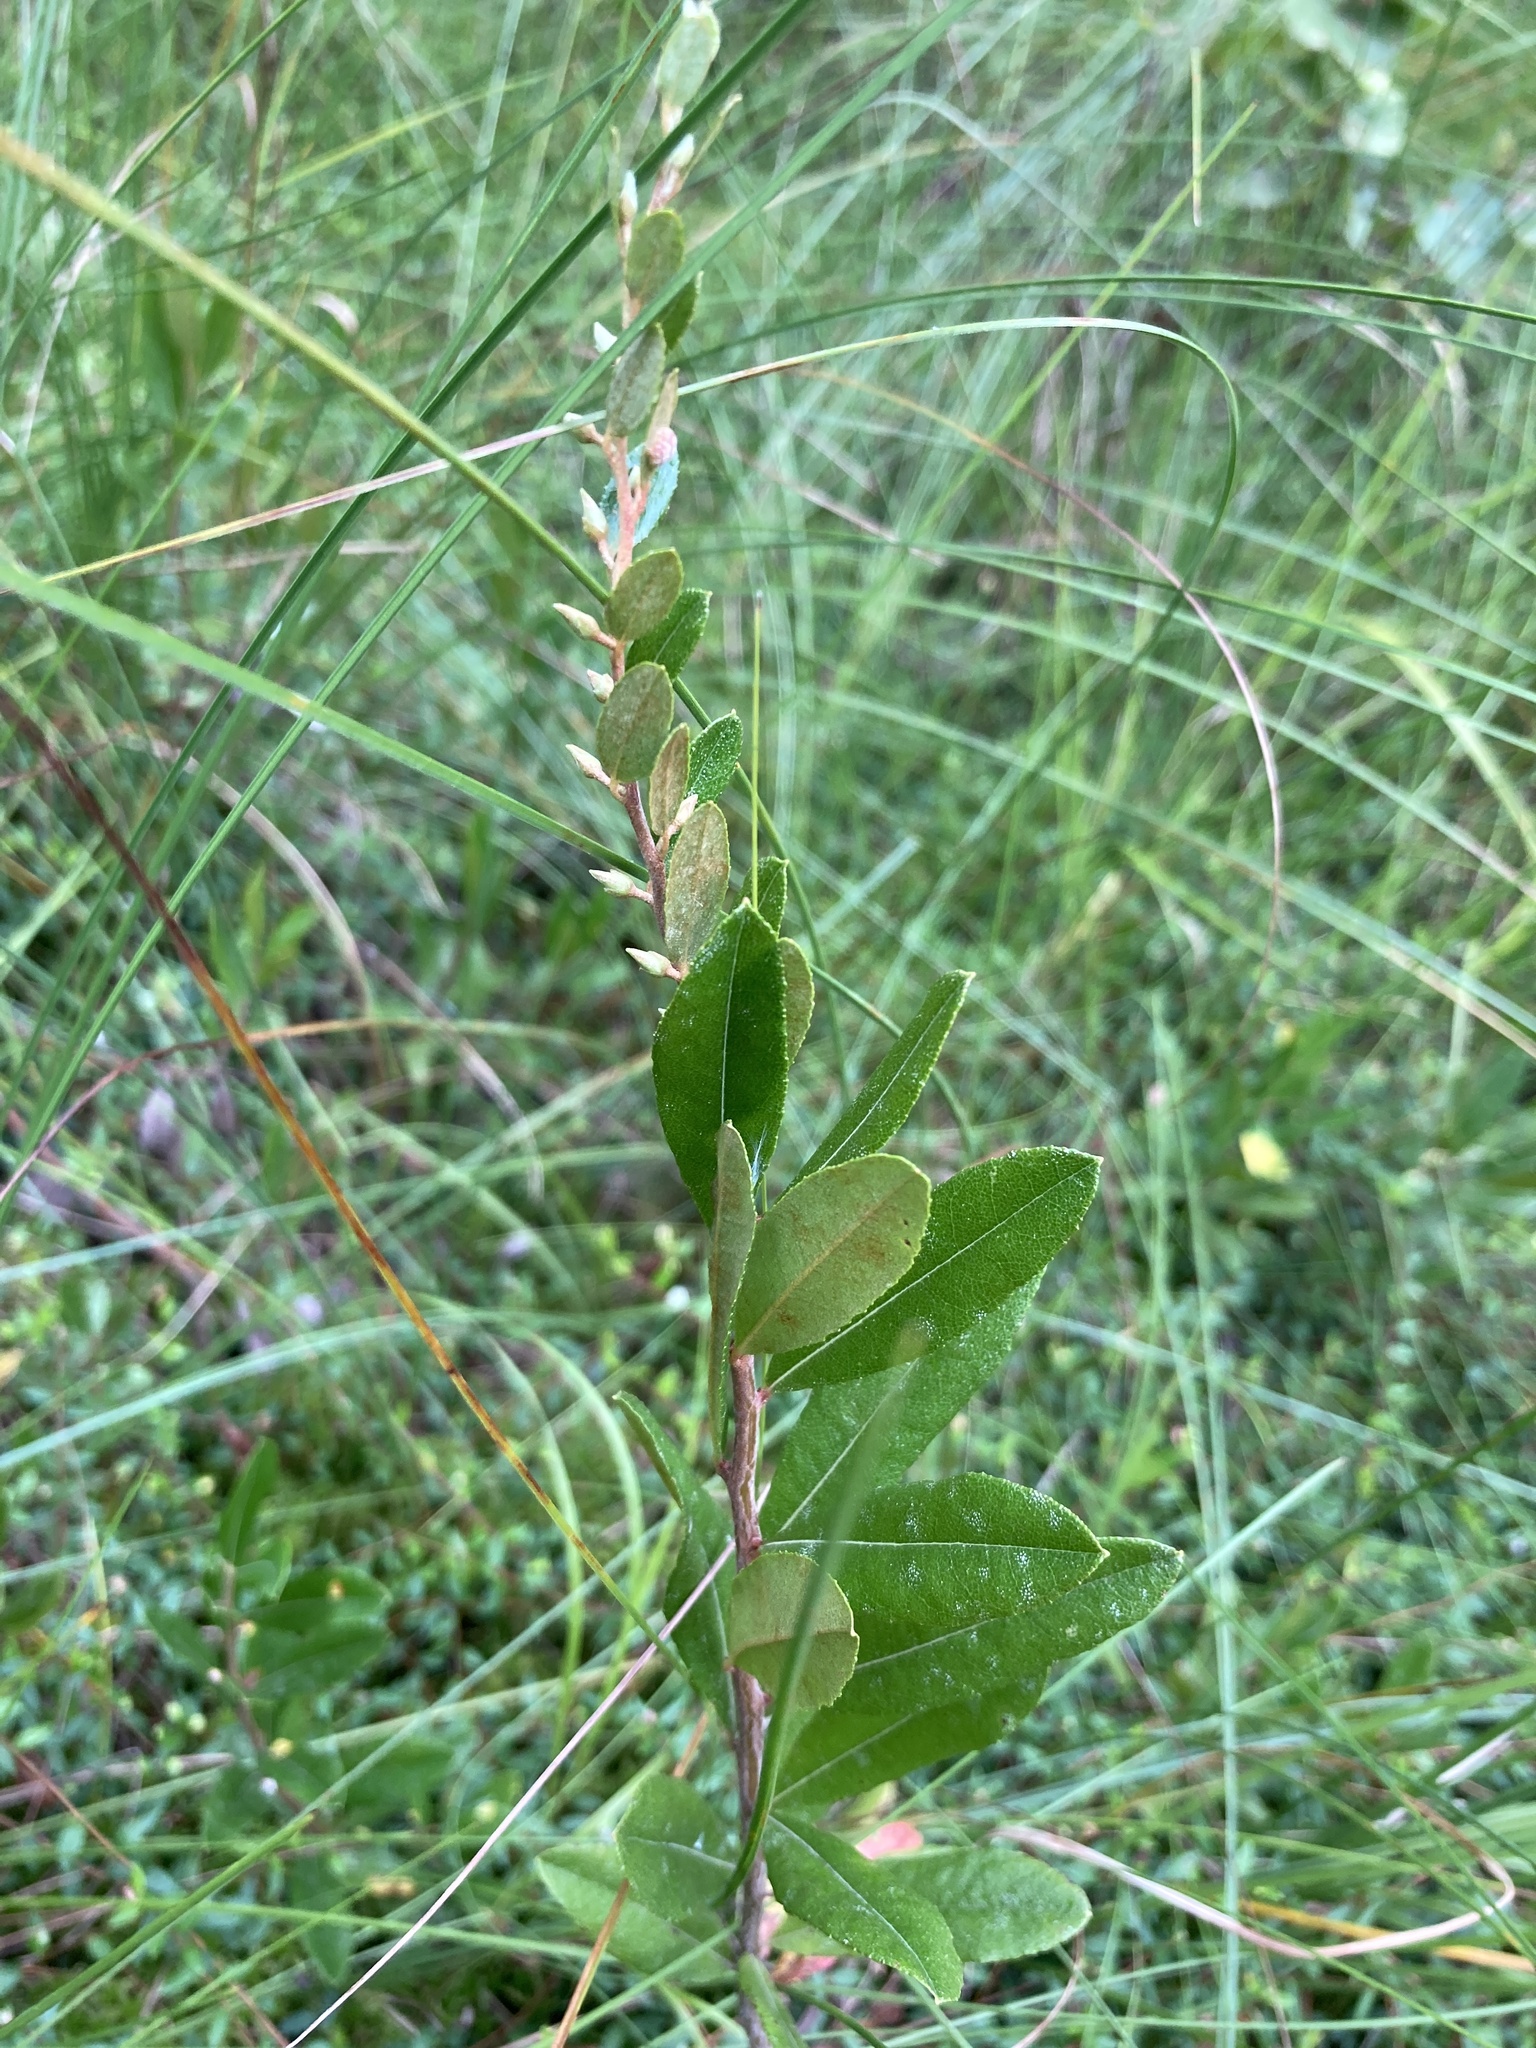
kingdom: Plantae
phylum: Tracheophyta
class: Magnoliopsida
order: Ericales
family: Ericaceae
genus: Chamaedaphne
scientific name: Chamaedaphne calyculata
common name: Leatherleaf
